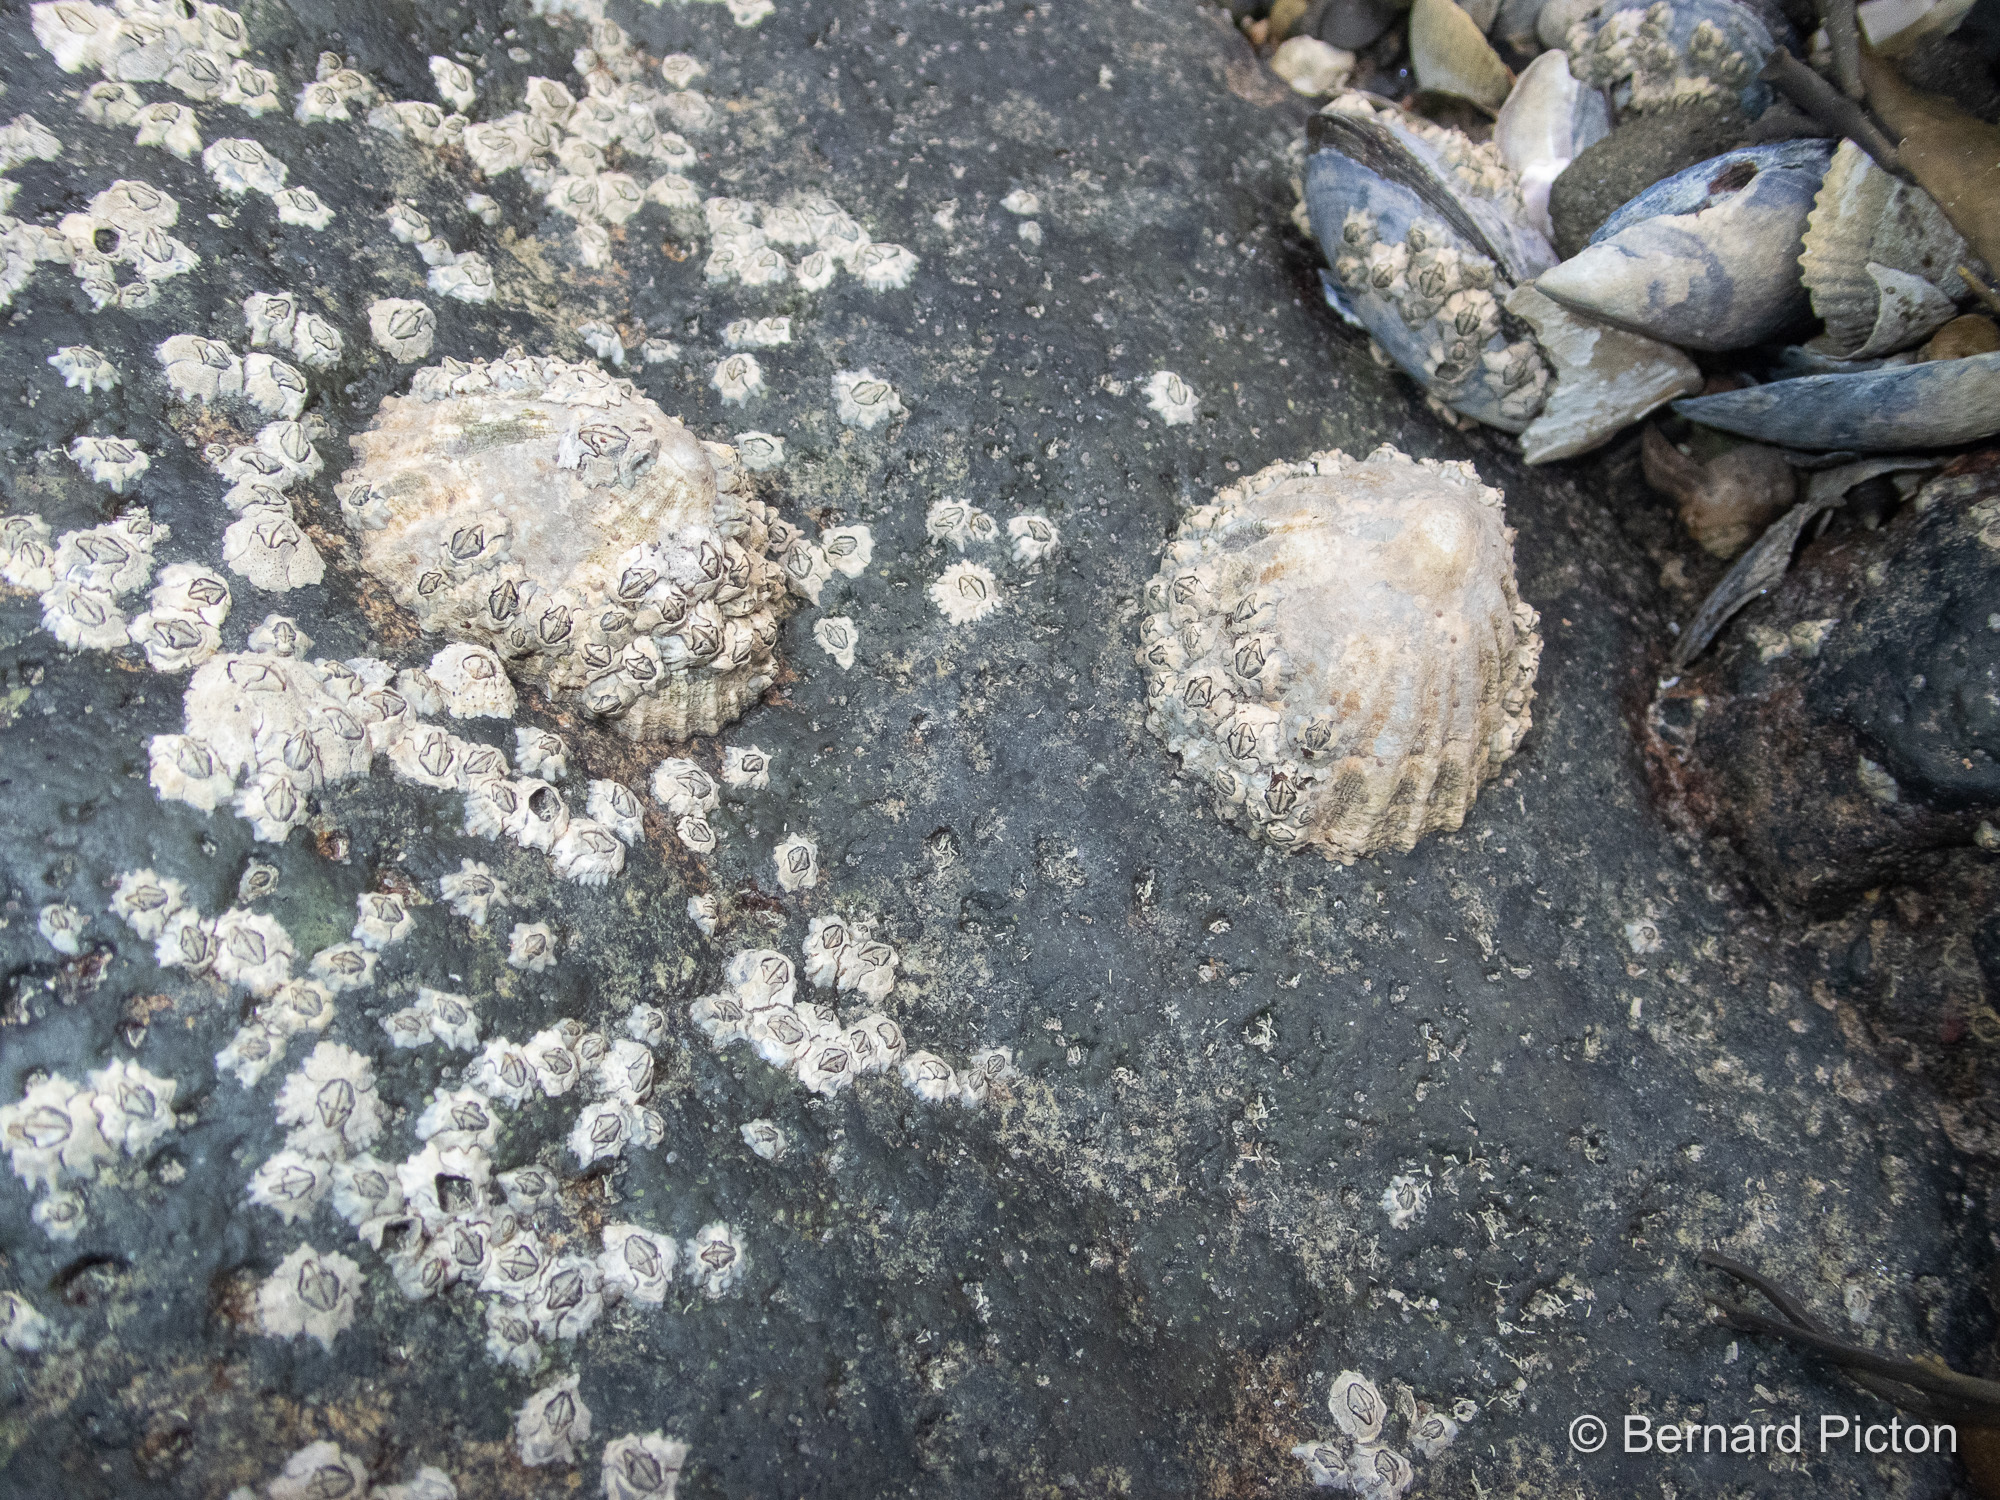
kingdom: Animalia
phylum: Mollusca
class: Gastropoda
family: Patellidae
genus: Patella
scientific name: Patella vulgata
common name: Common limpet
